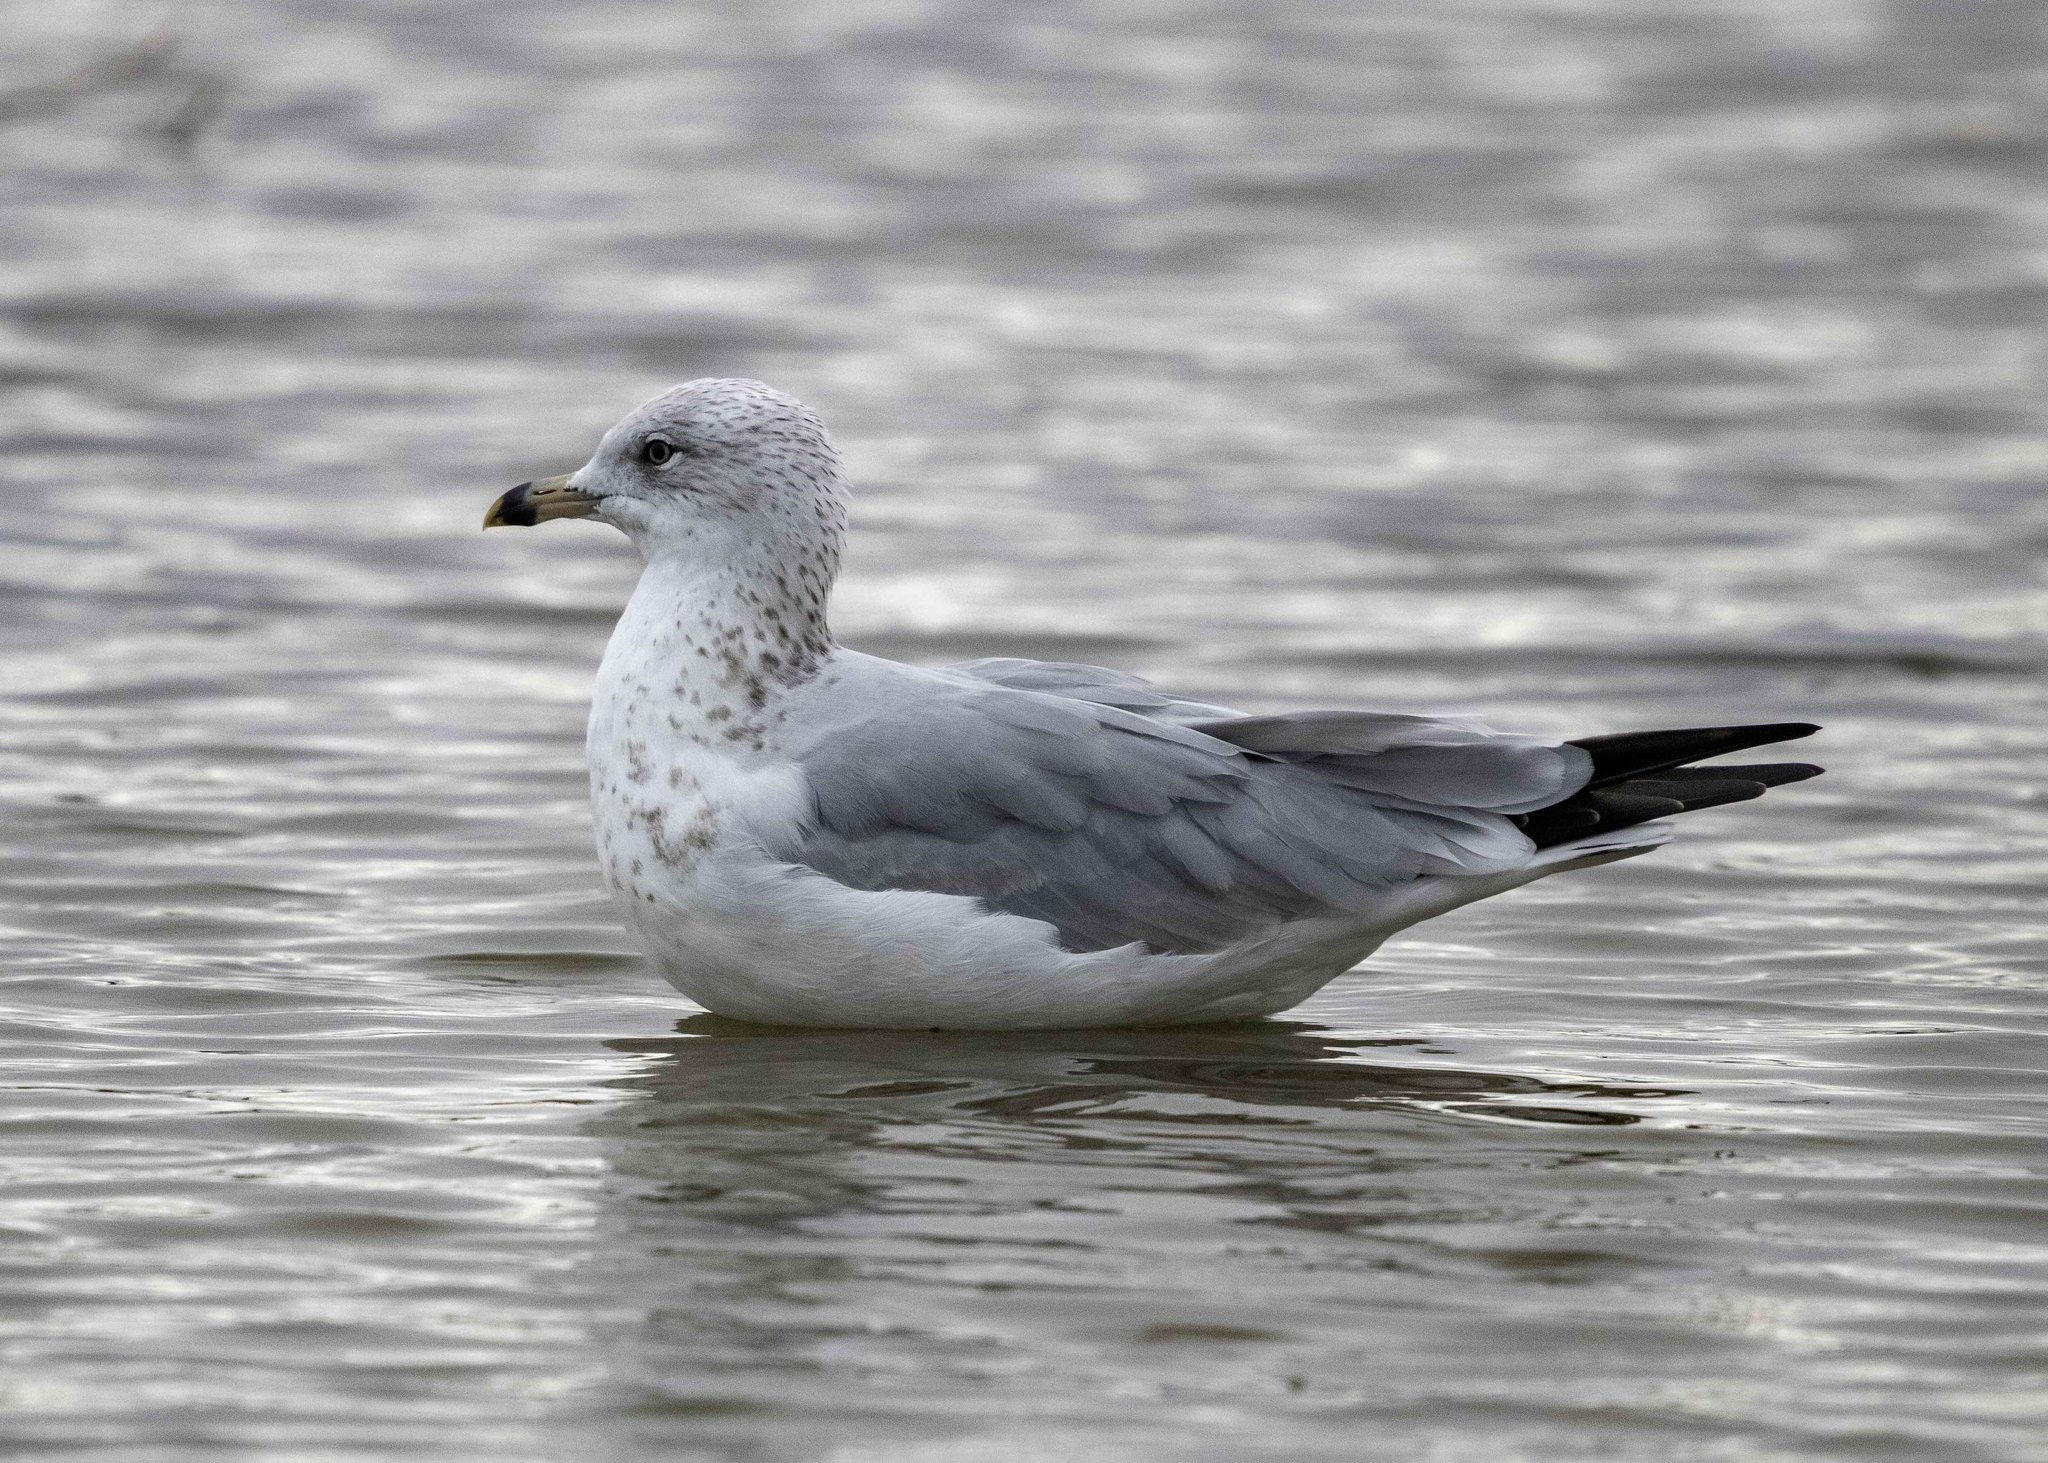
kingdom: Animalia
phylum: Chordata
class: Aves
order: Charadriiformes
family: Laridae
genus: Larus
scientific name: Larus delawarensis
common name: Ring-billed gull
